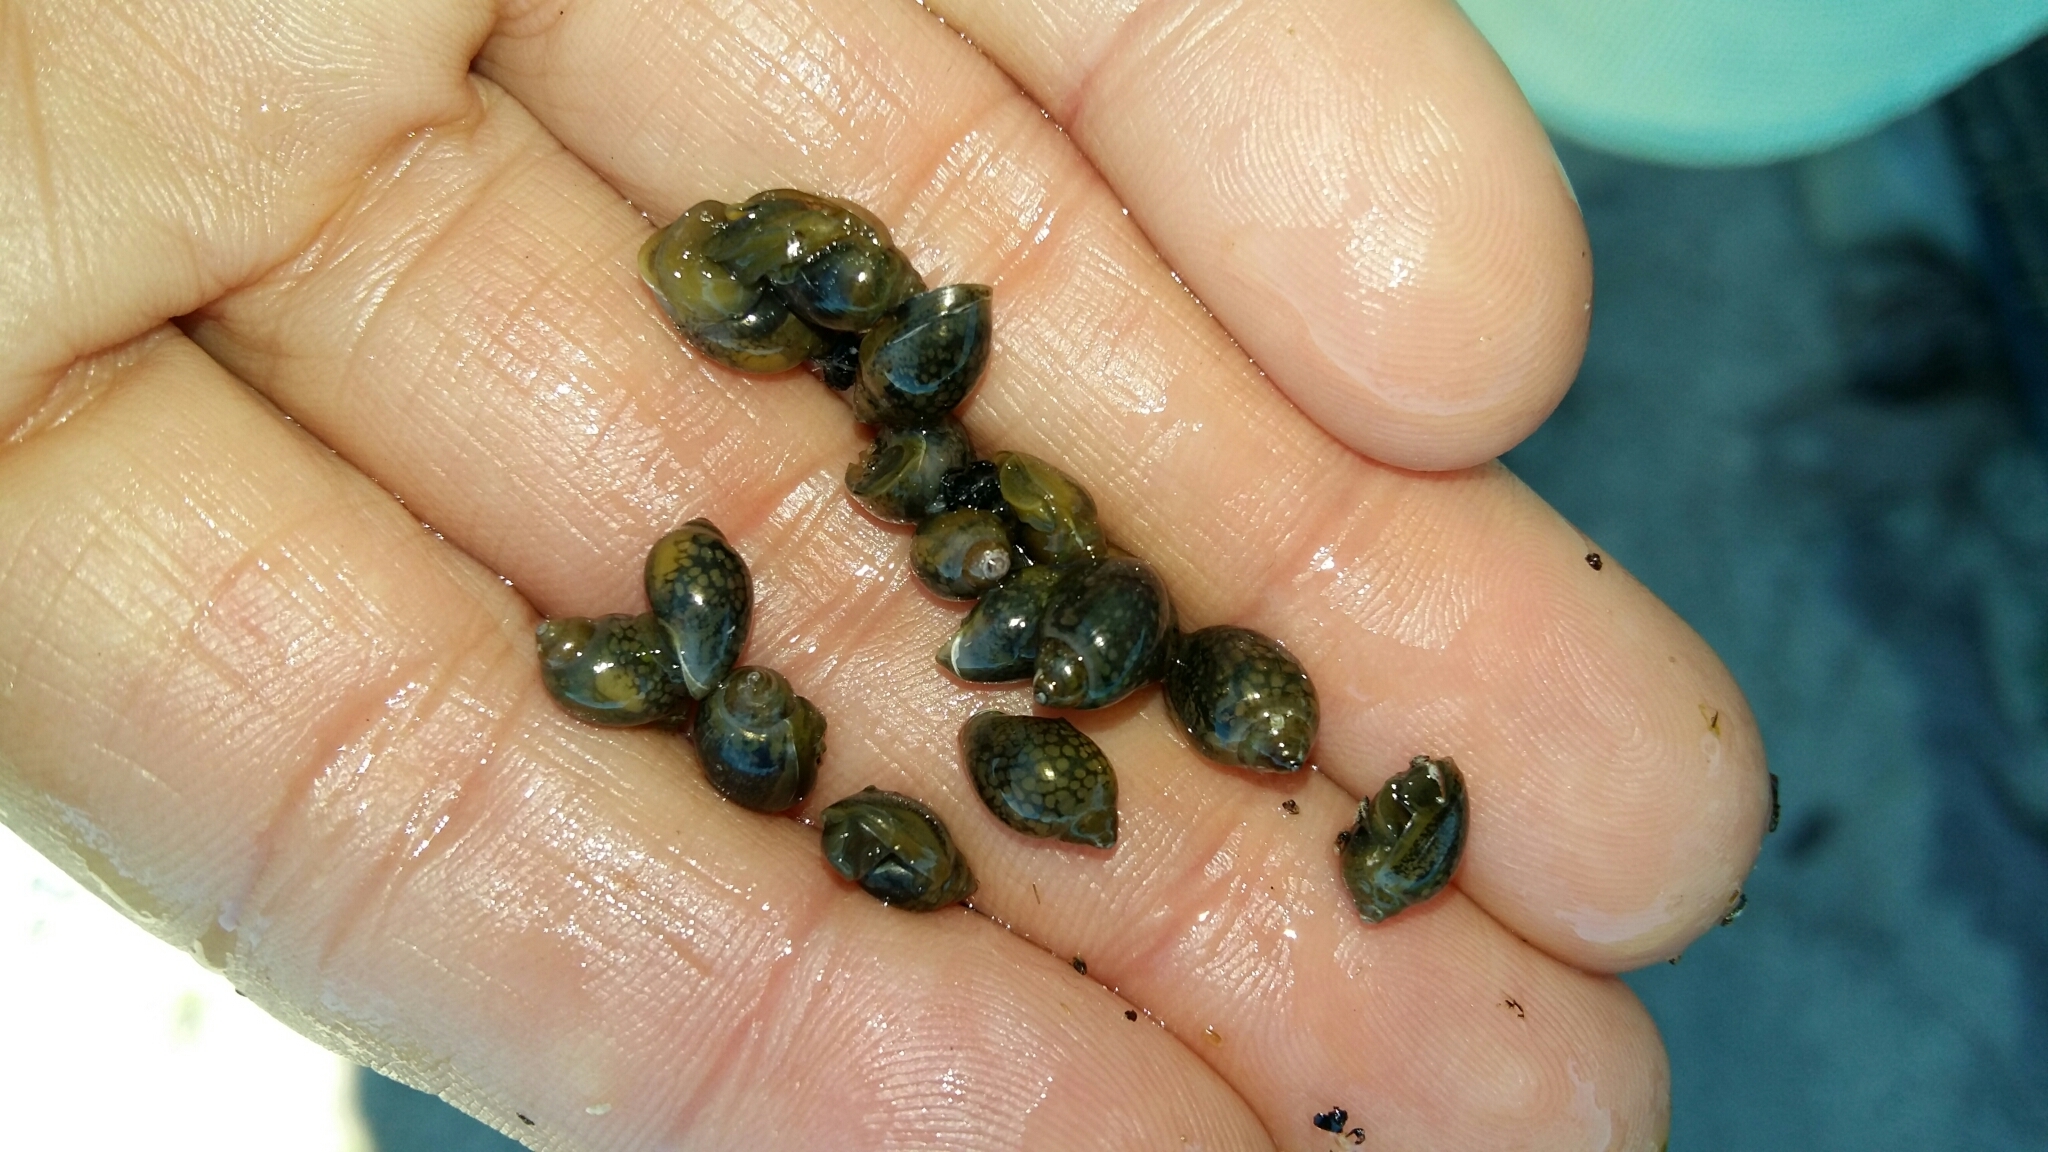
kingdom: Animalia
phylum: Mollusca
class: Gastropoda
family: Physidae
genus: Physella
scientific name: Physella acuta
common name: European physa
